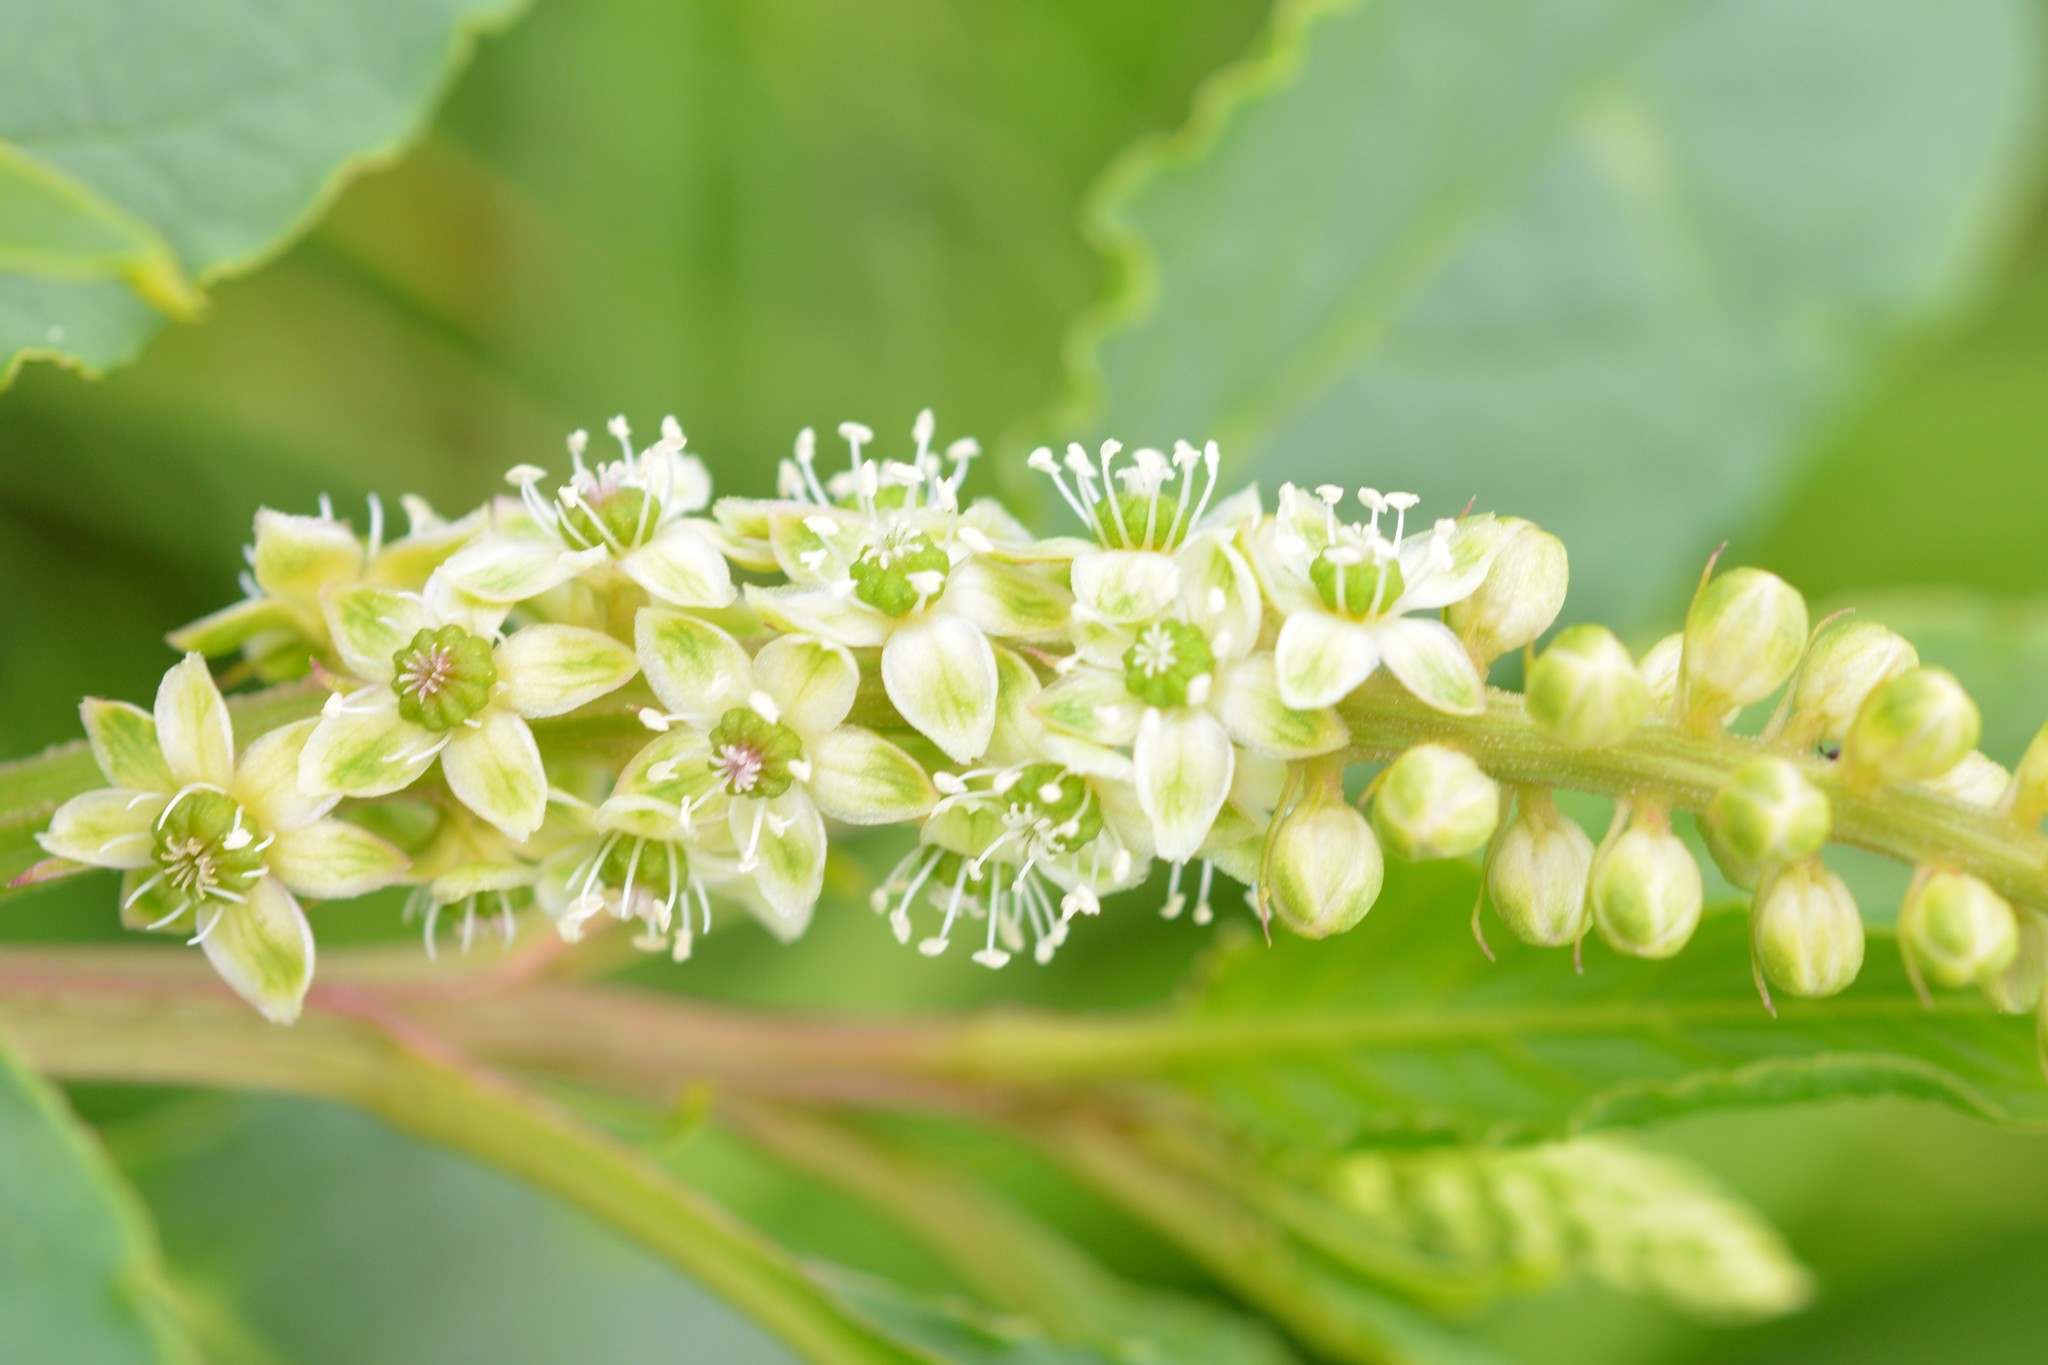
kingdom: Plantae
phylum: Tracheophyta
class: Magnoliopsida
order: Caryophyllales
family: Phytolaccaceae
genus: Phytolacca
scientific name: Phytolacca icosandra
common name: Button pokeweed
